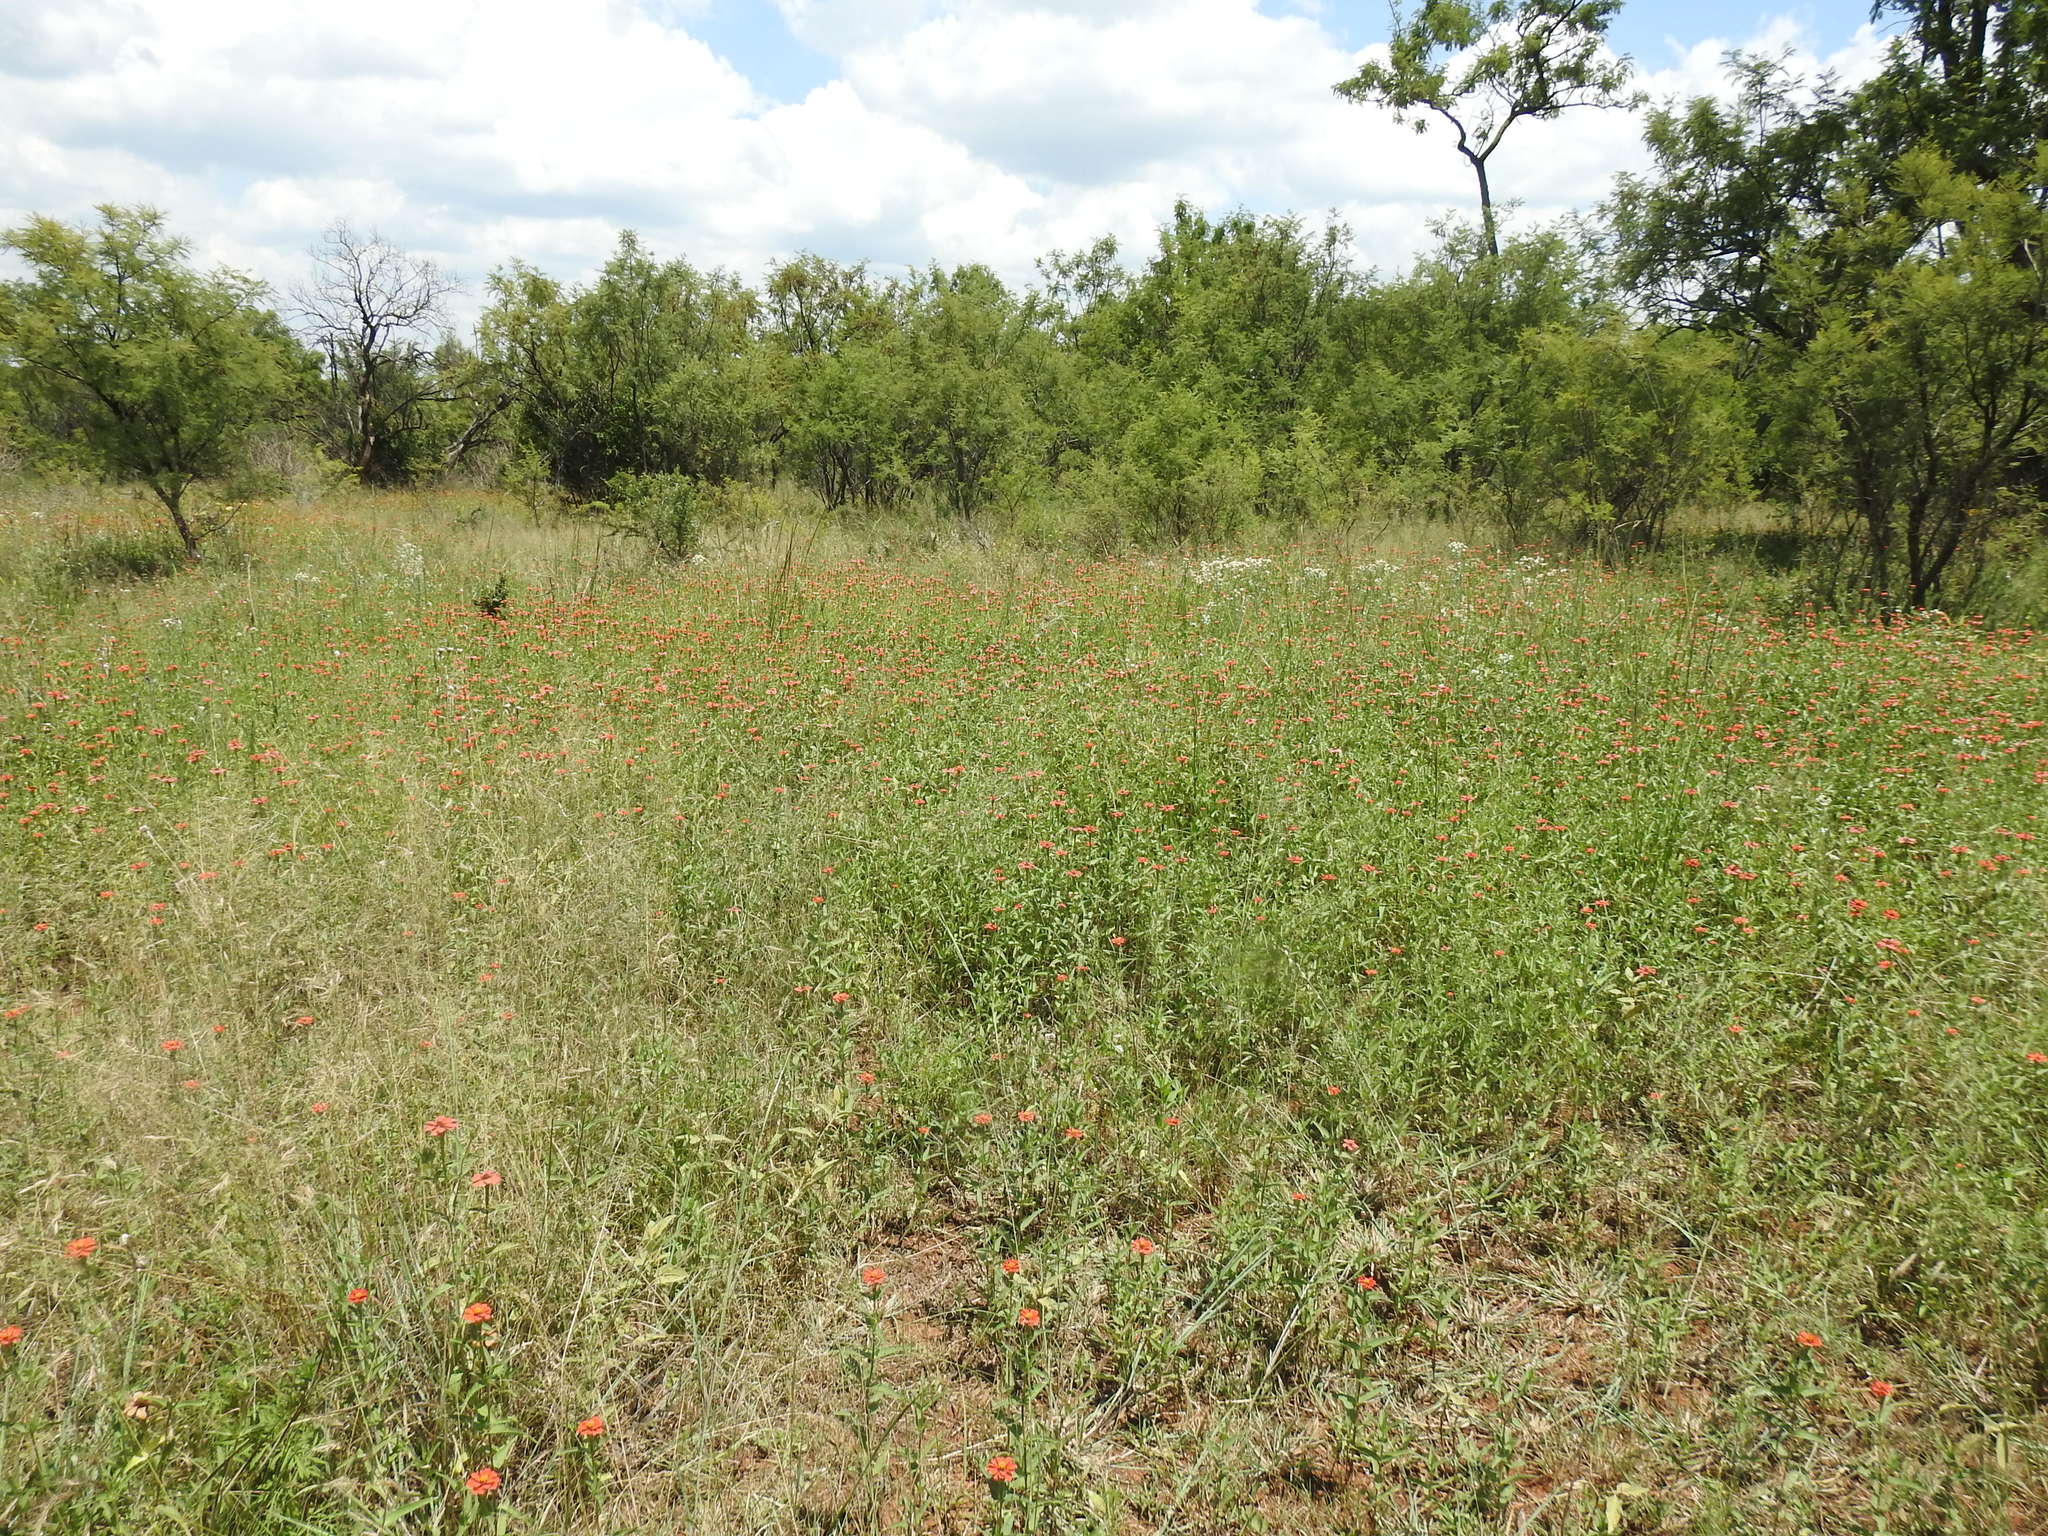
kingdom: Plantae
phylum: Tracheophyta
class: Magnoliopsida
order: Asterales
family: Asteraceae
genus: Zinnia
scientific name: Zinnia peruviana
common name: Peruvian zinnia
